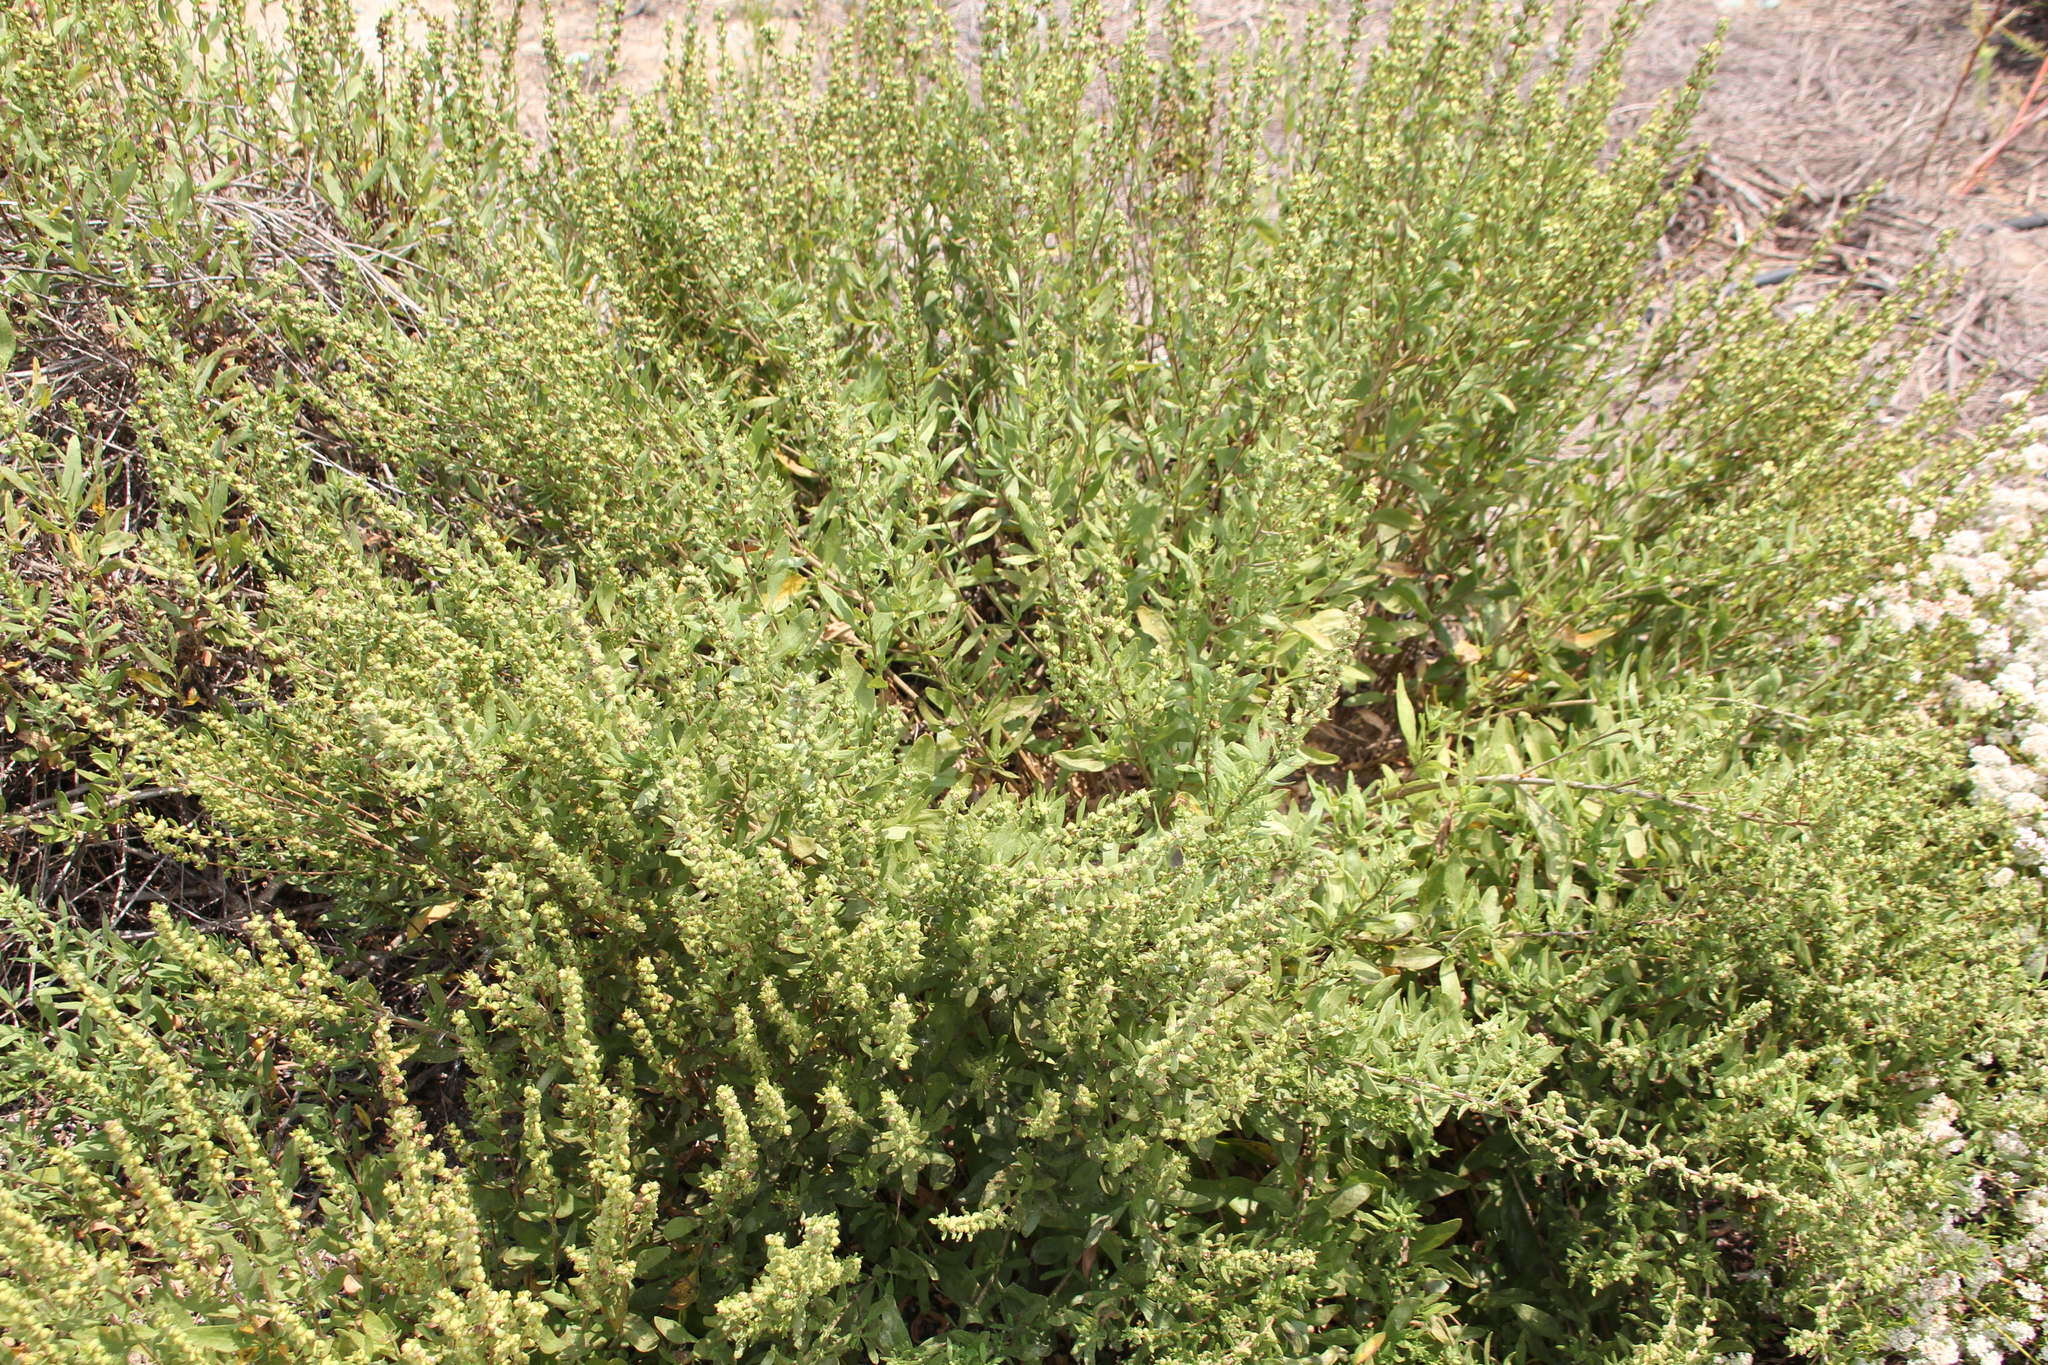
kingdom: Plantae
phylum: Tracheophyta
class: Magnoliopsida
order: Asterales
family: Asteraceae
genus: Iva
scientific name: Iva hayesiana
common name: San diego marsh-elder
